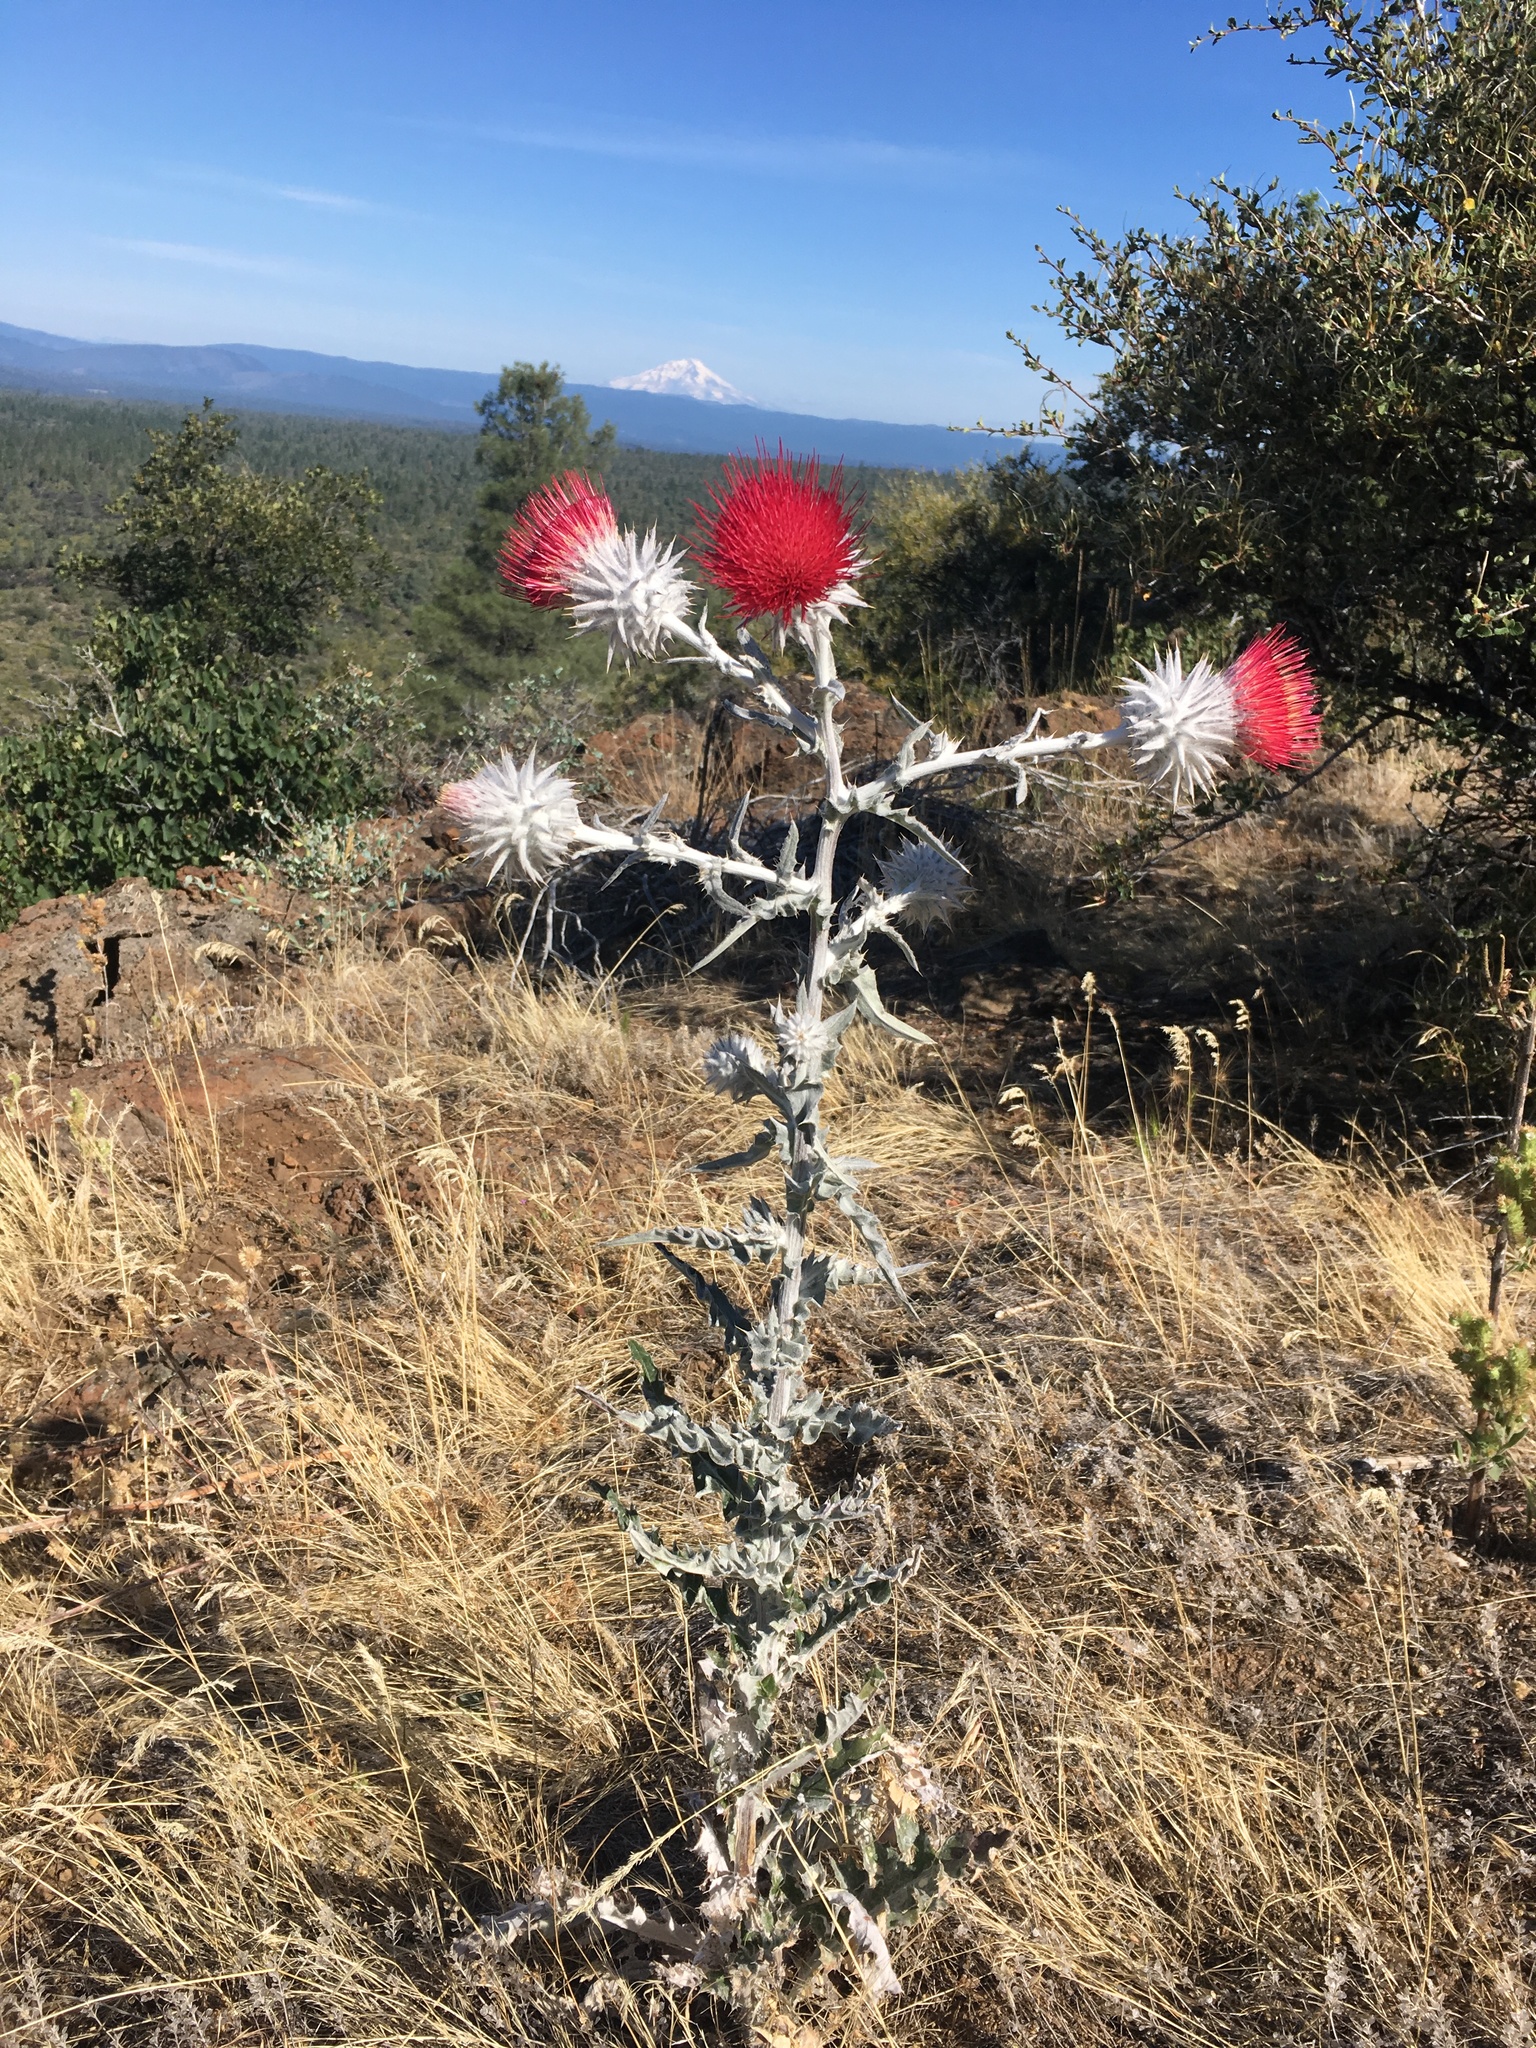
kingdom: Plantae
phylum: Tracheophyta
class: Magnoliopsida
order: Asterales
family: Asteraceae
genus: Cirsium
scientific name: Cirsium occidentale
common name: Western thistle
